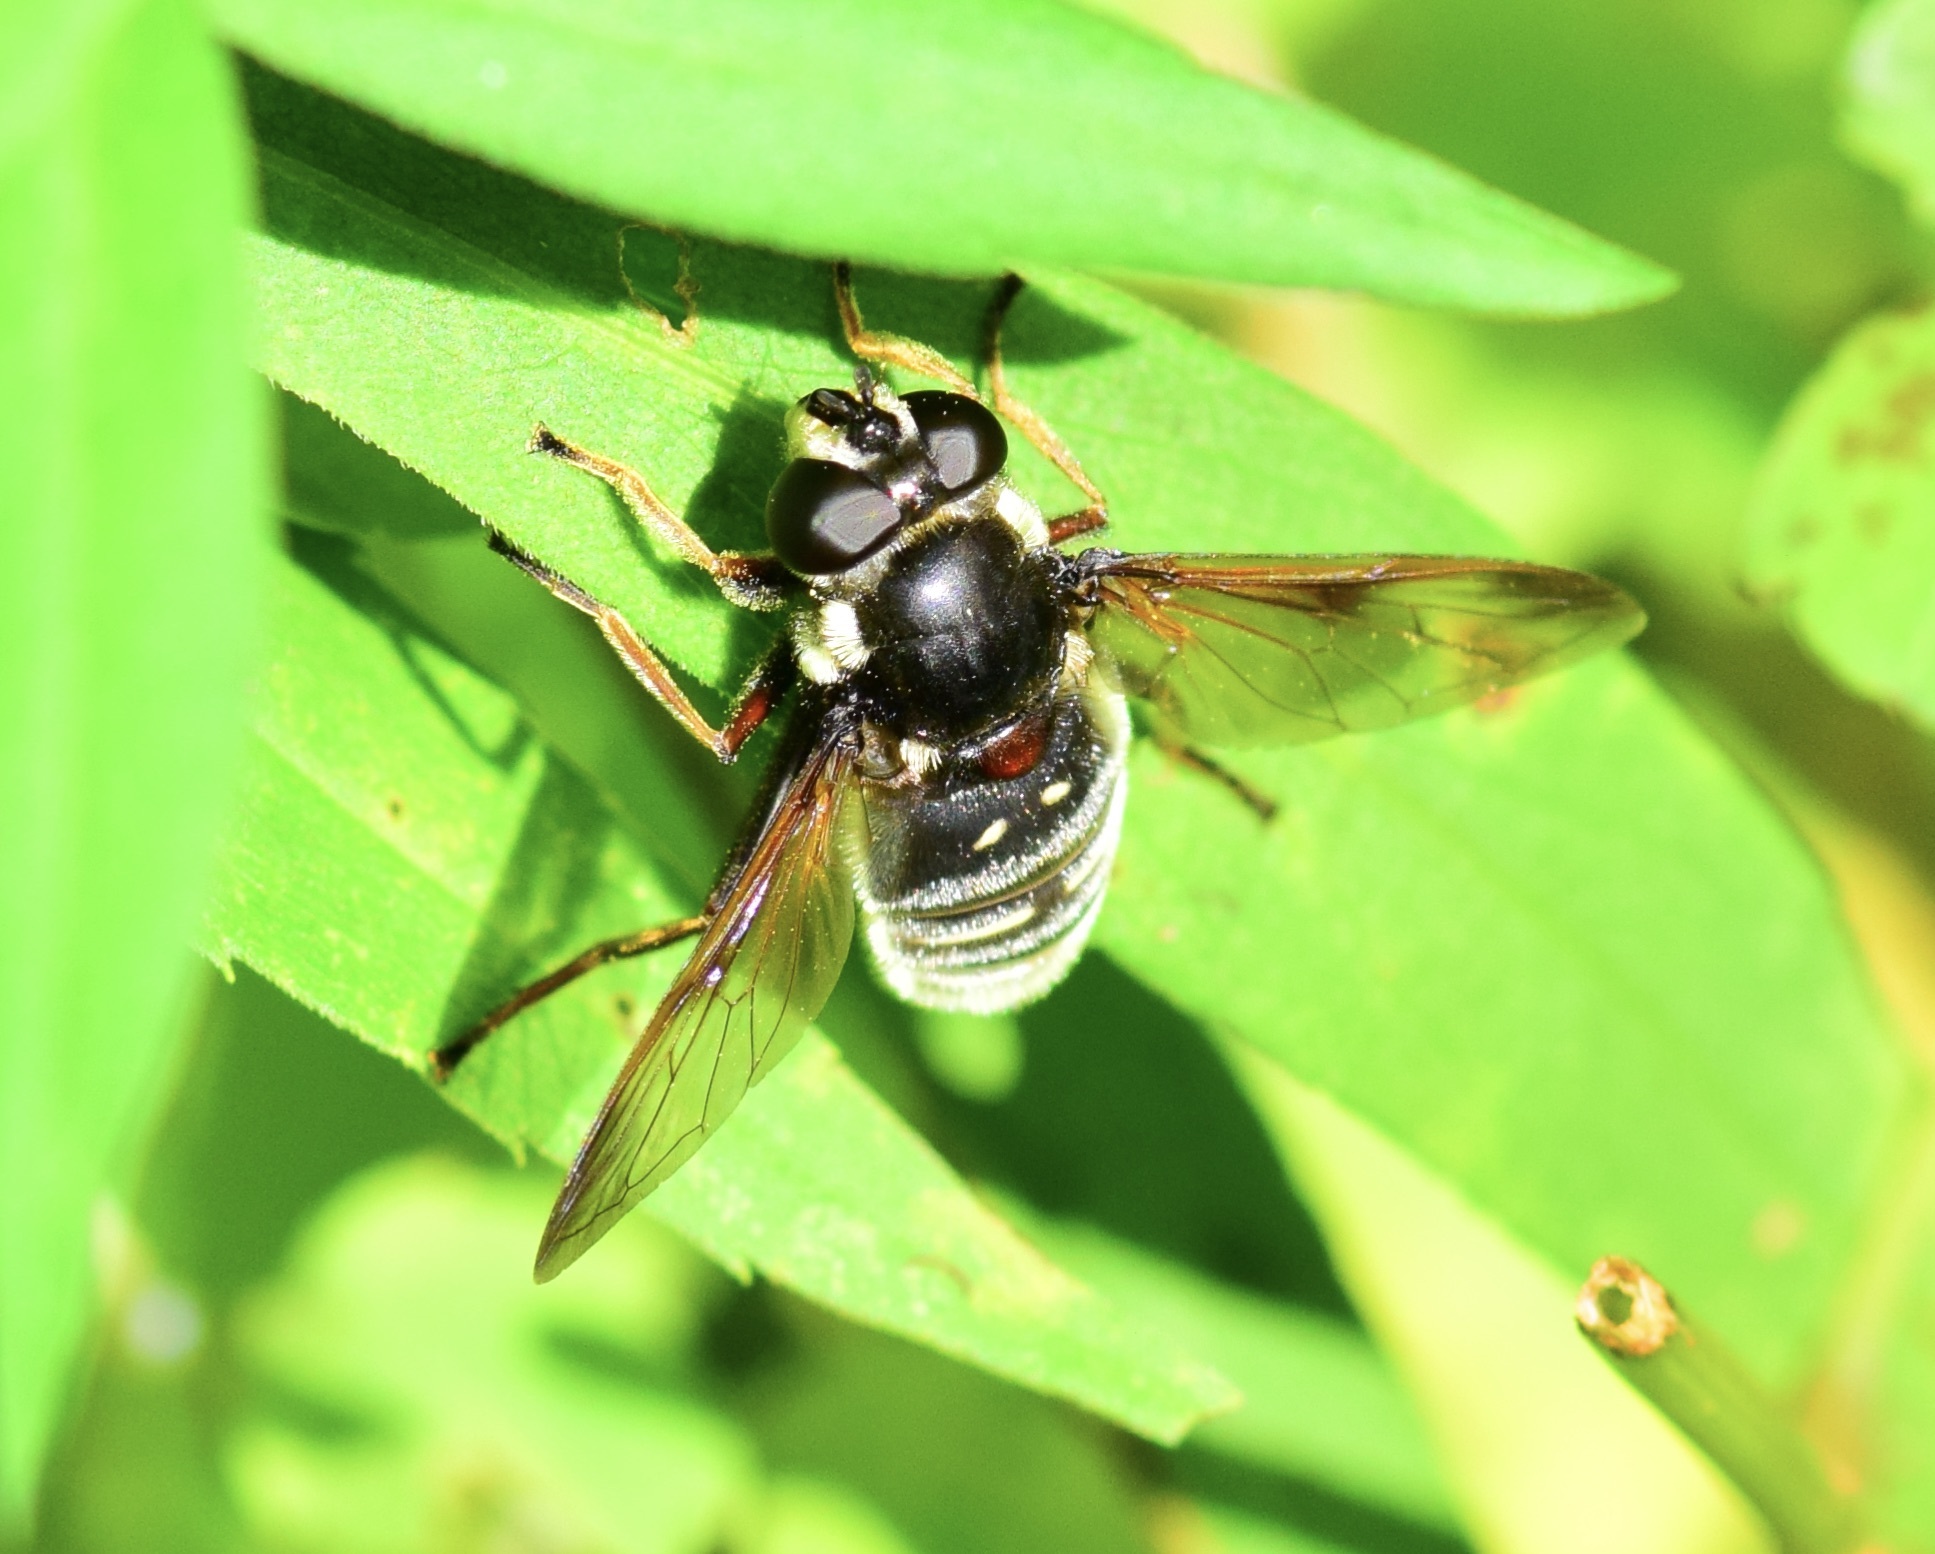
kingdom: Animalia
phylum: Arthropoda
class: Insecta
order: Diptera
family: Syrphidae
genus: Sericomyia
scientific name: Sericomyia militaris
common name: Narrow-banded pond fly
